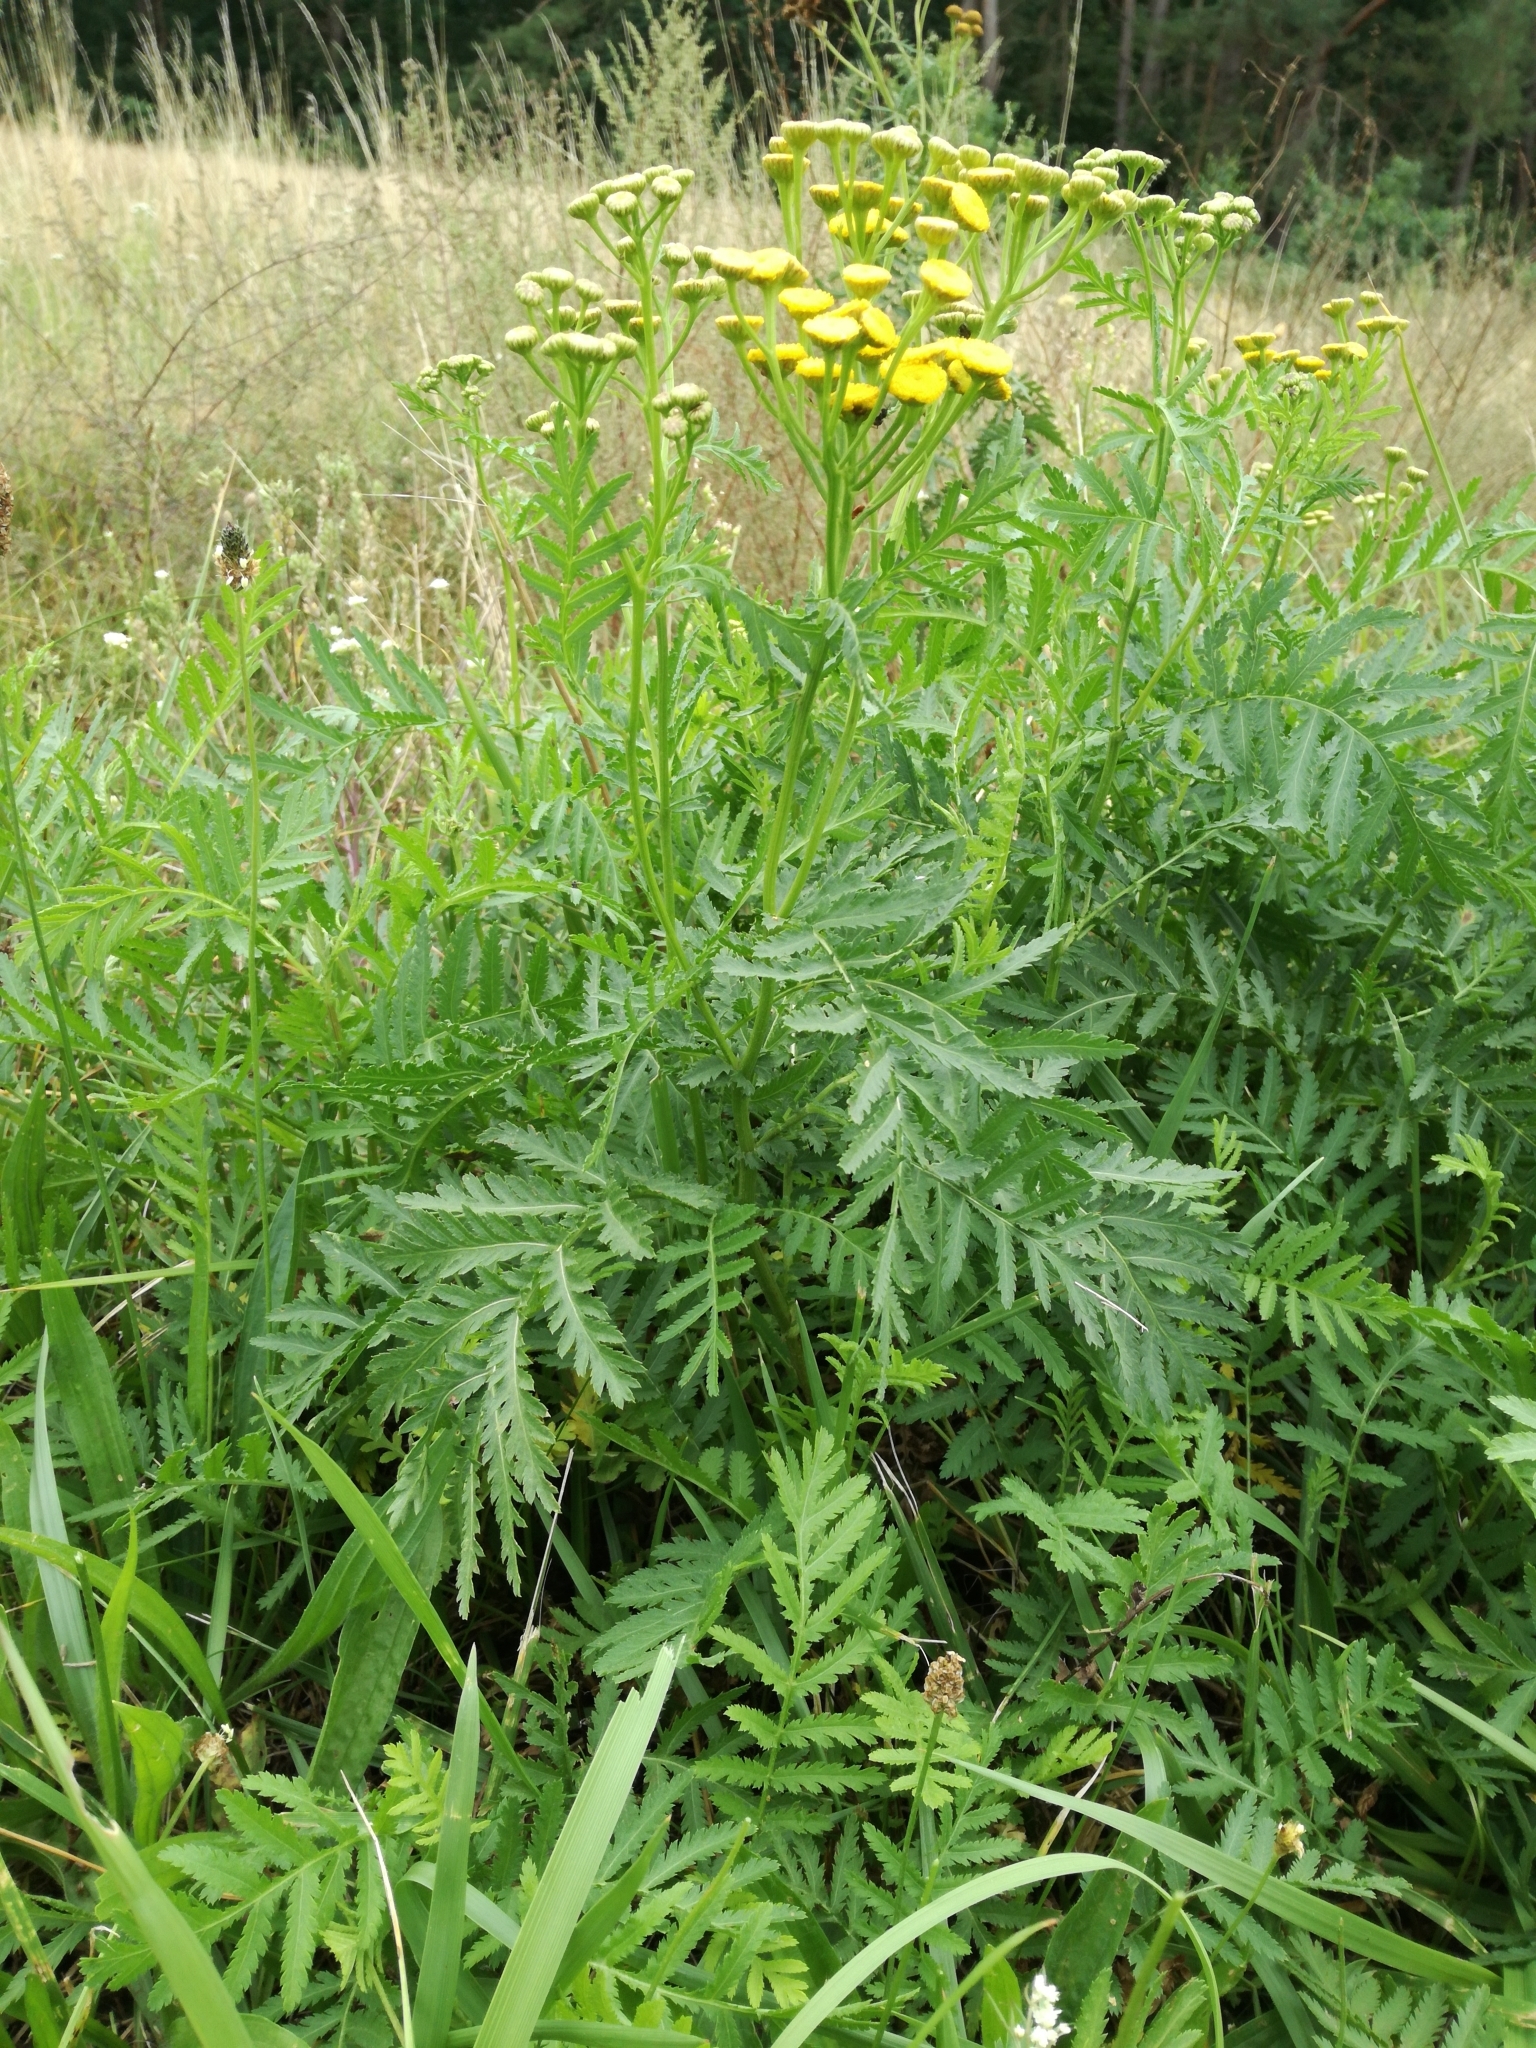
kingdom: Plantae
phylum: Tracheophyta
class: Magnoliopsida
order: Asterales
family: Asteraceae
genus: Tanacetum
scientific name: Tanacetum vulgare
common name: Common tansy
